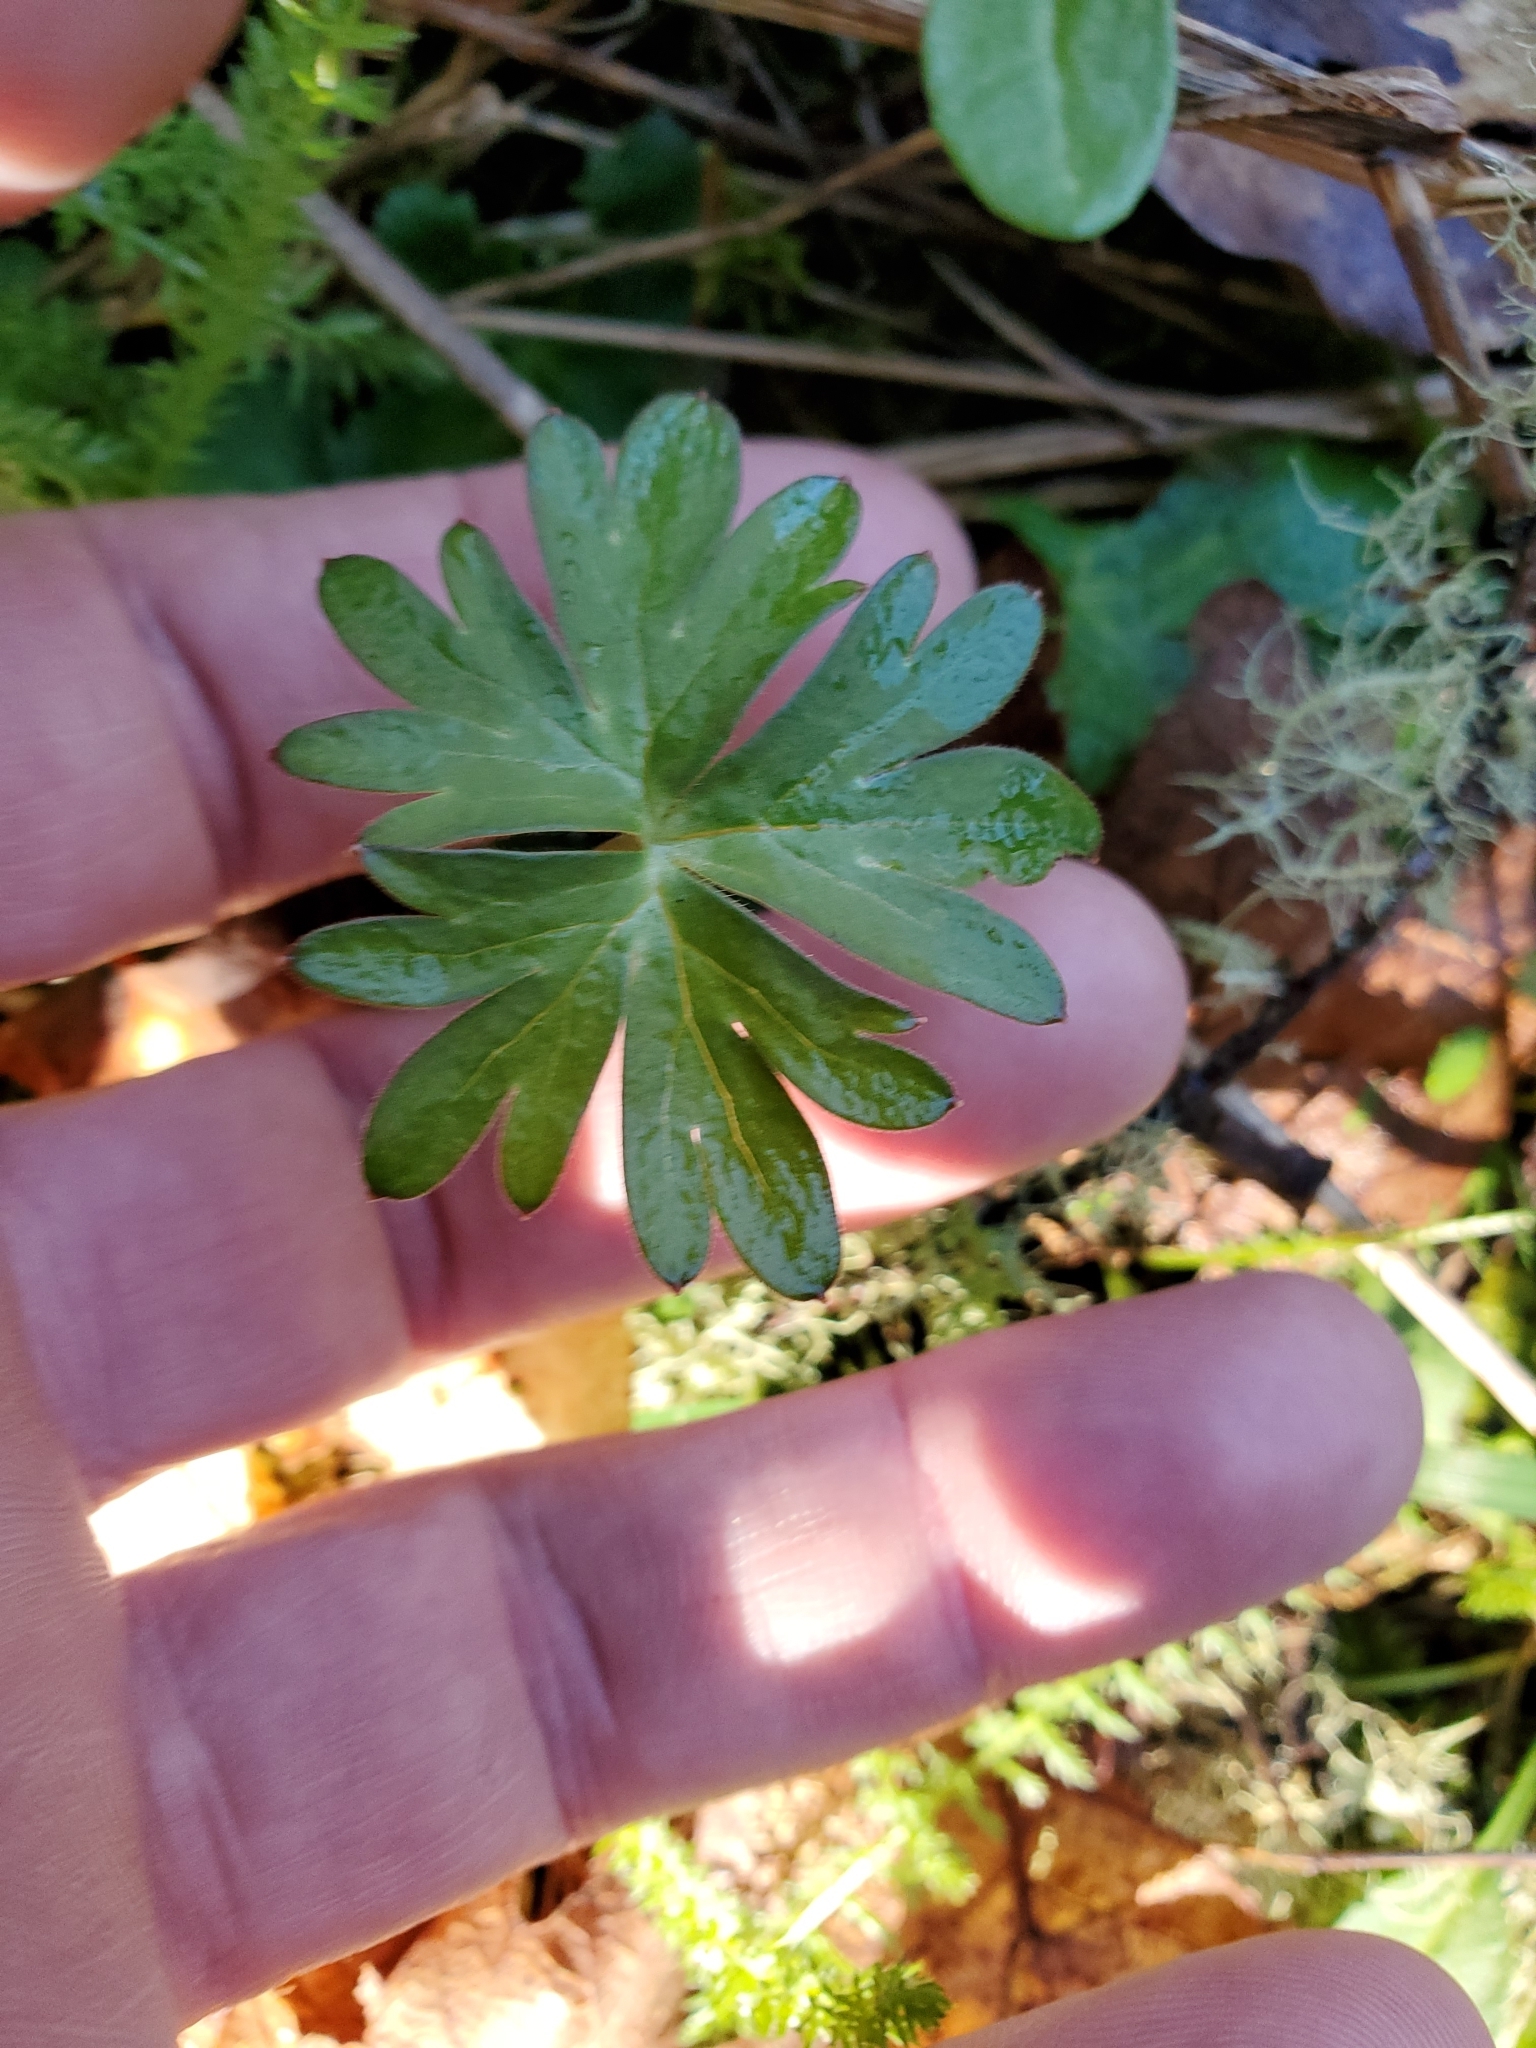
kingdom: Plantae
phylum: Tracheophyta
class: Magnoliopsida
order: Ranunculales
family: Ranunculaceae
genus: Delphinium
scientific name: Delphinium menziesii
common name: Menzies's larkspur
